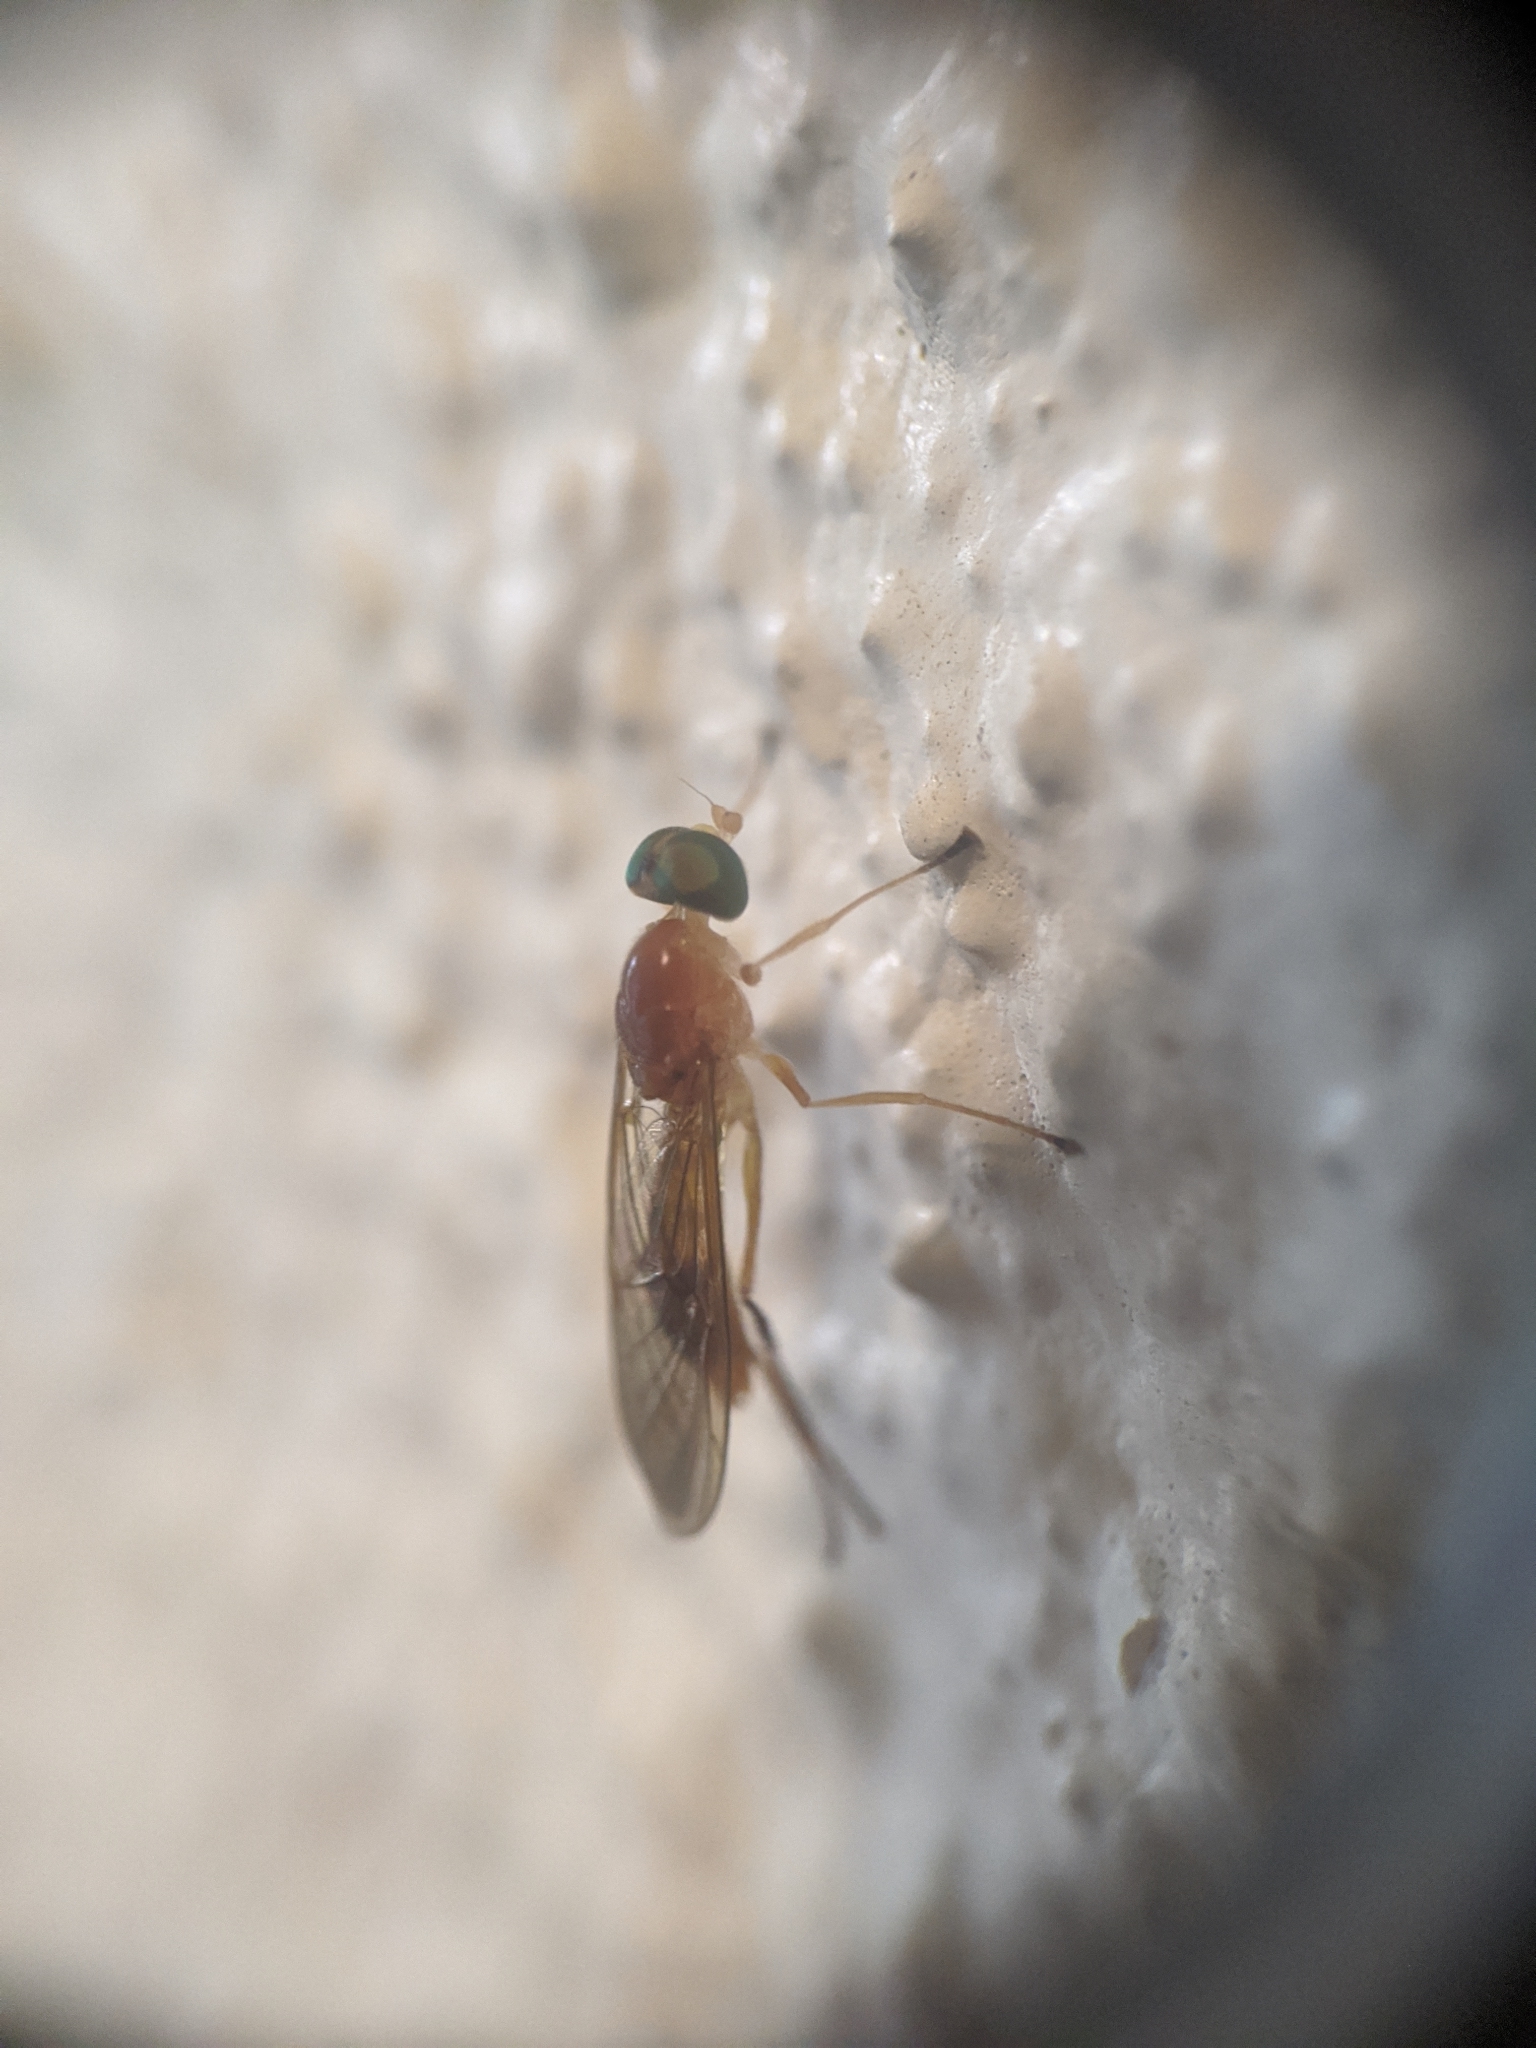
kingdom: Animalia
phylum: Arthropoda
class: Insecta
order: Diptera
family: Stratiomyidae
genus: Ptecticus
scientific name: Ptecticus trivittatus
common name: Compost fly
